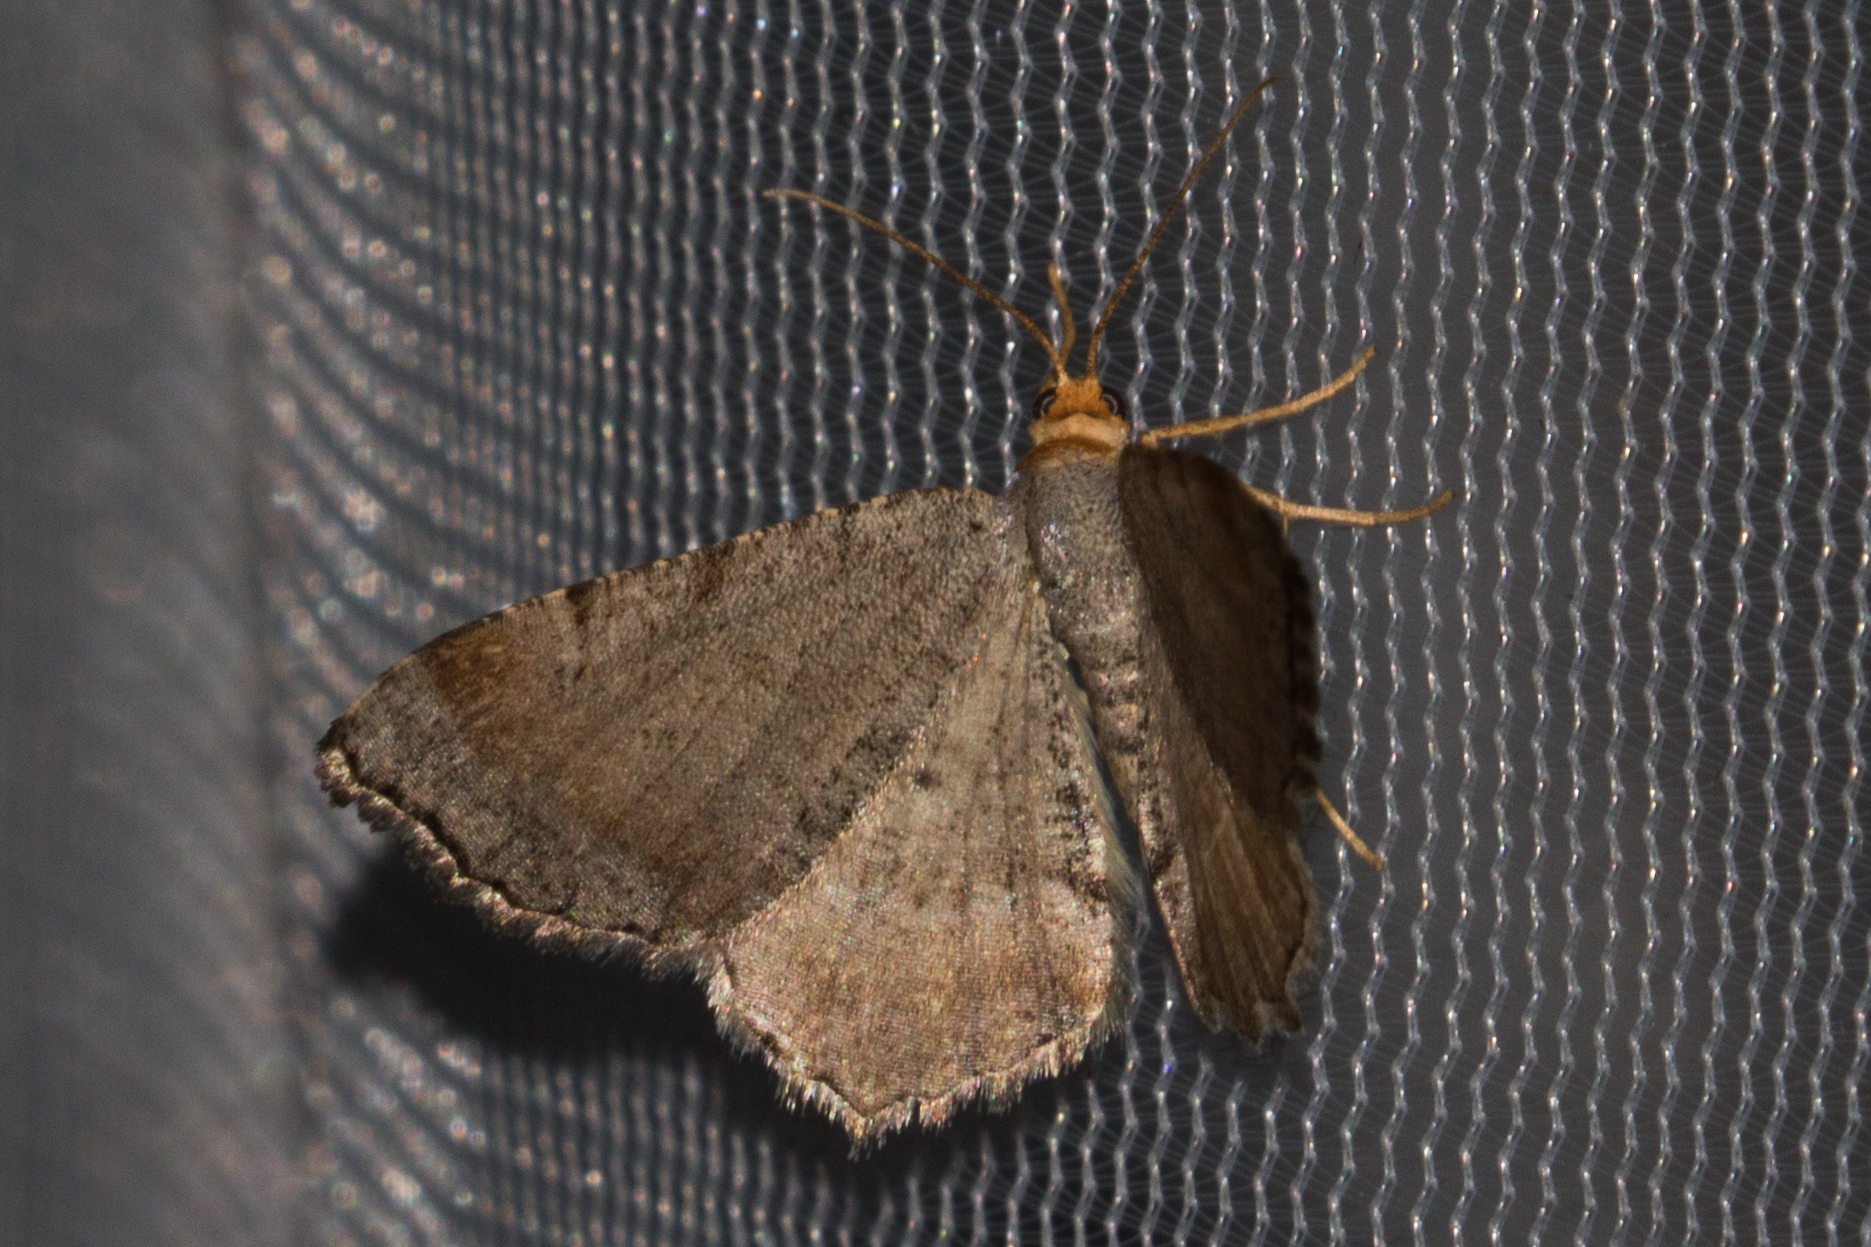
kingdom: Animalia
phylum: Arthropoda
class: Insecta
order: Lepidoptera
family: Geometridae
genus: Macaria
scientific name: Macaria transitaria
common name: Blurry chocolate angle
